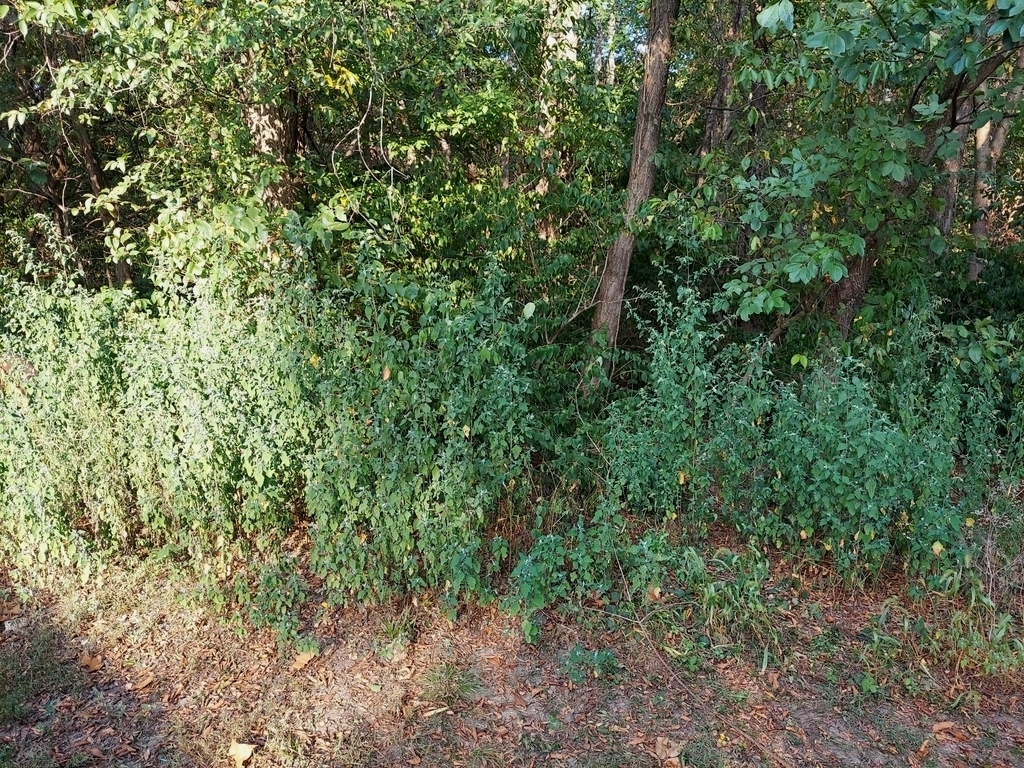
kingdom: Plantae
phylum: Tracheophyta
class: Magnoliopsida
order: Caryophyllales
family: Amaranthaceae
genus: Chenopodium
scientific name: Chenopodium album
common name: Fat-hen
